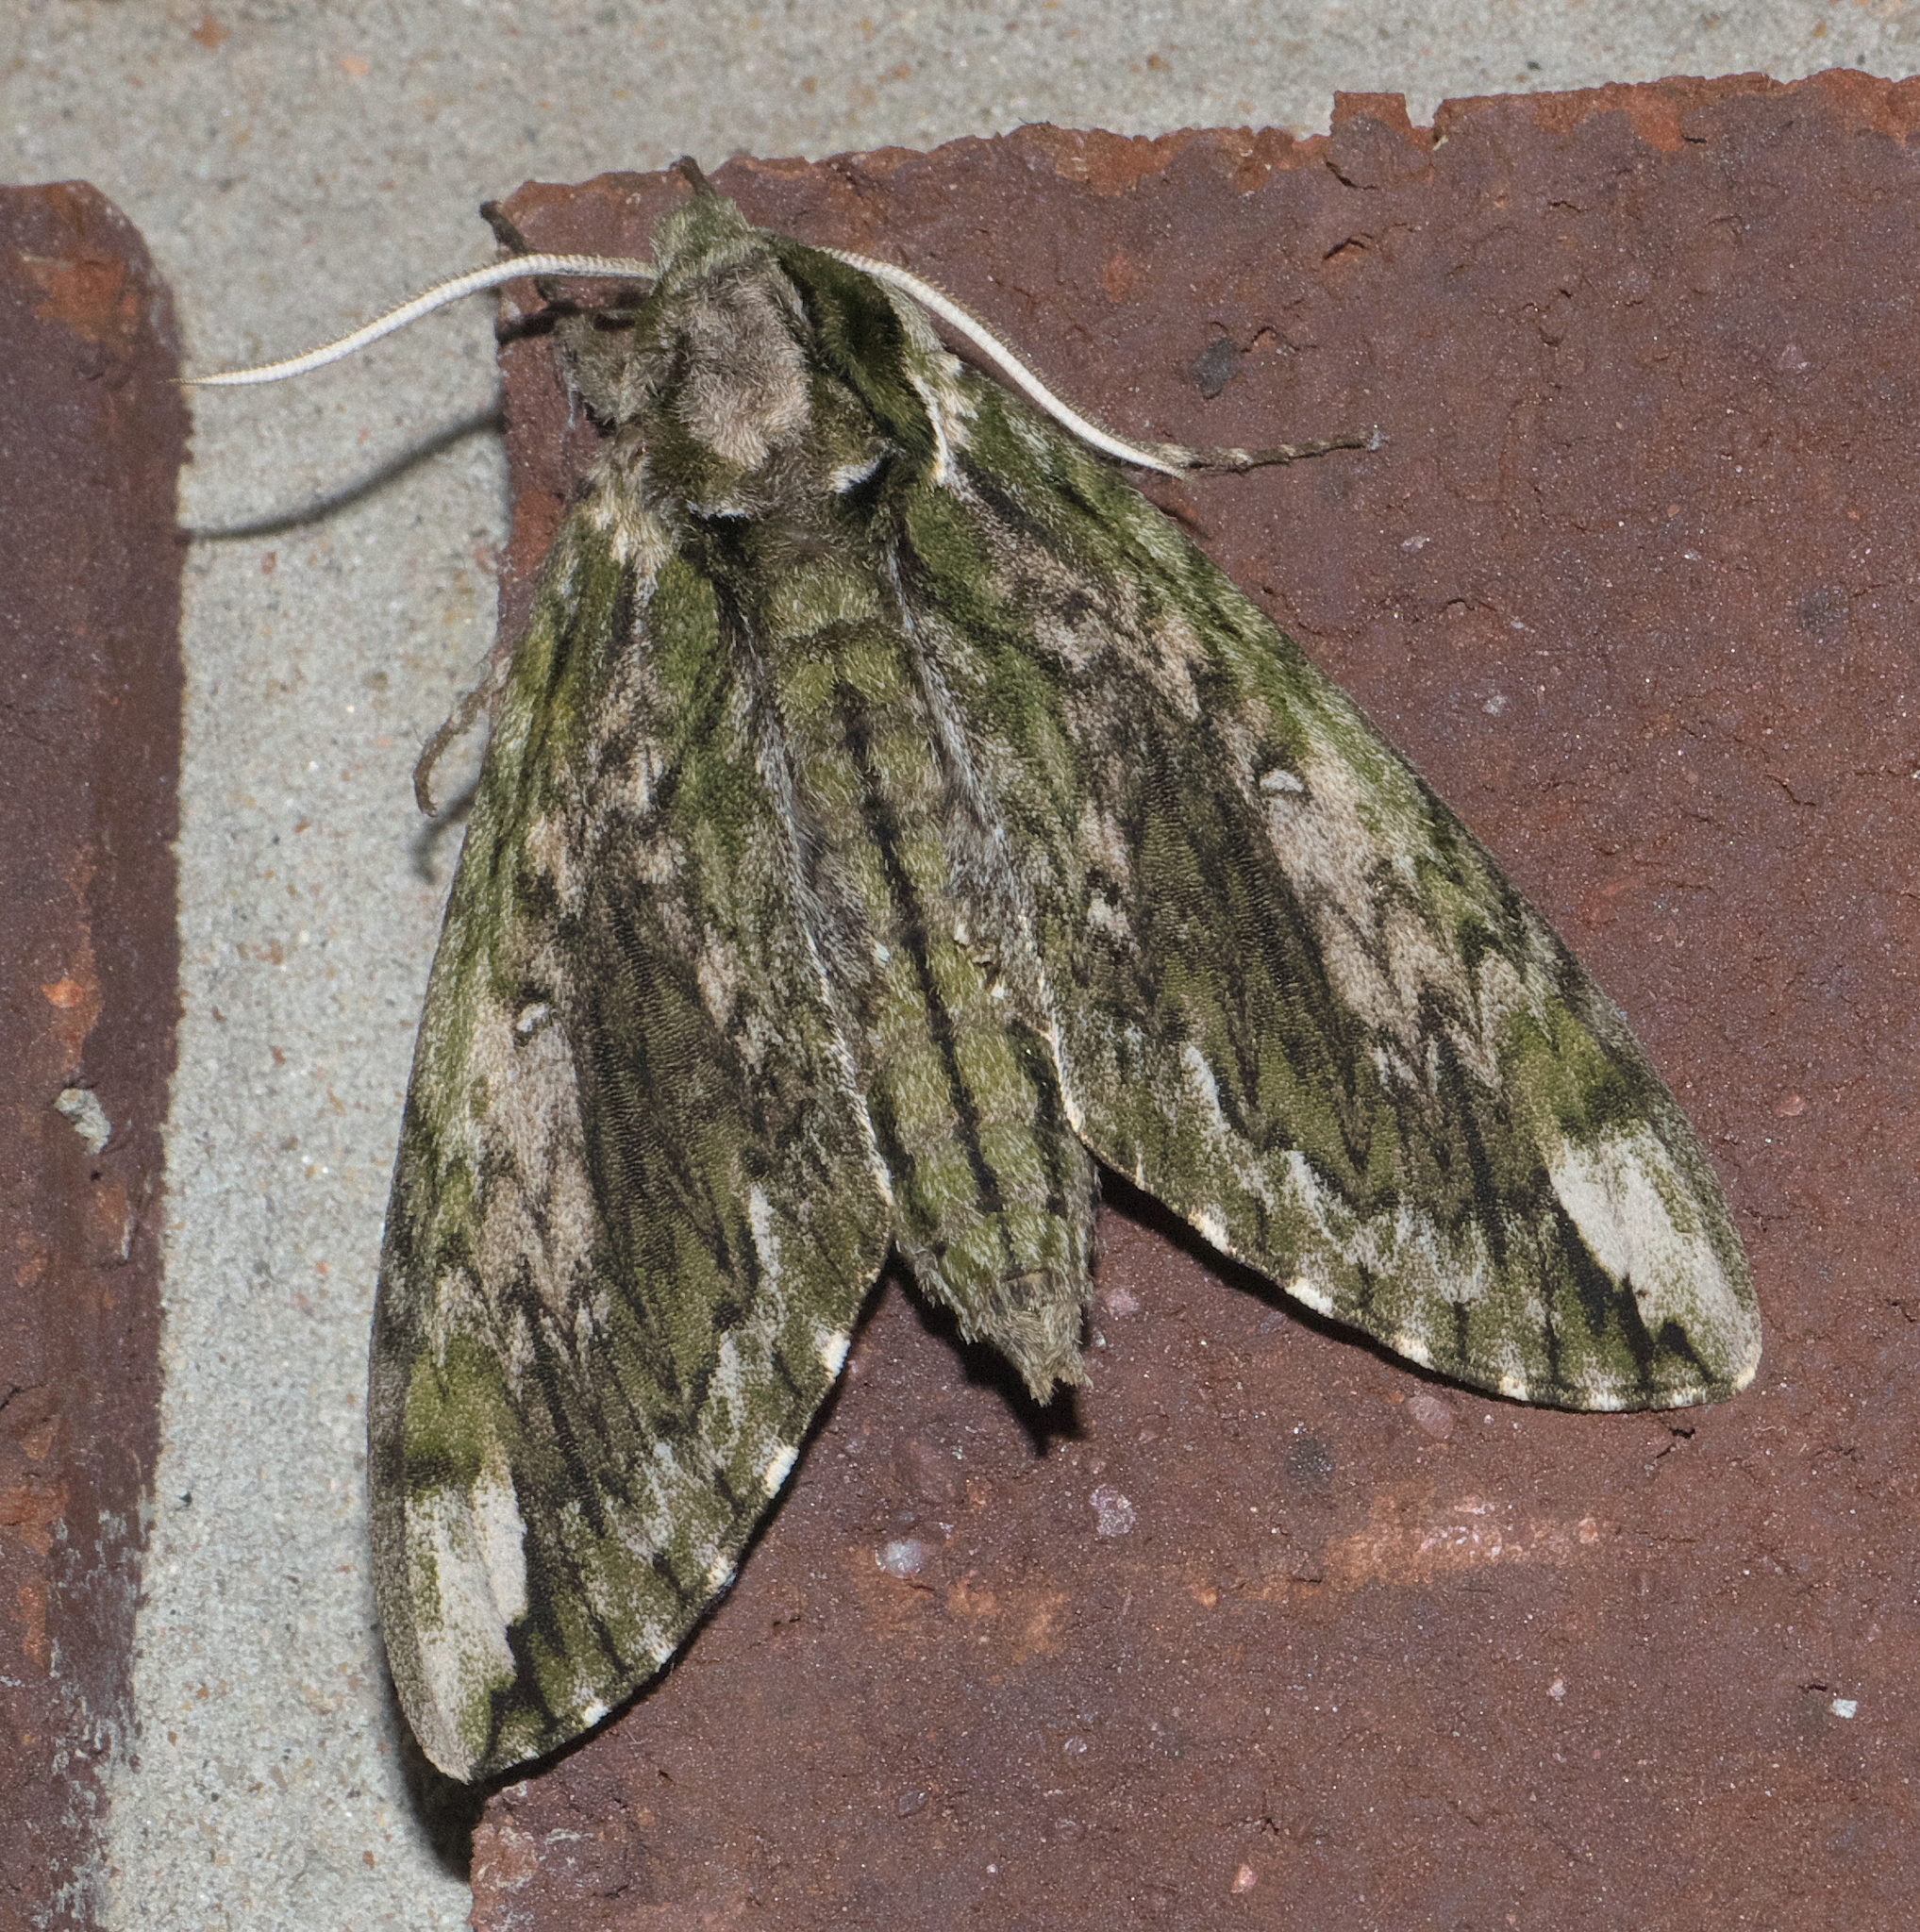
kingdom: Animalia
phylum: Arthropoda
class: Insecta
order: Lepidoptera
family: Sphingidae
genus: Ceratomia
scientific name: Ceratomia hageni
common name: Hagen's sphinx
